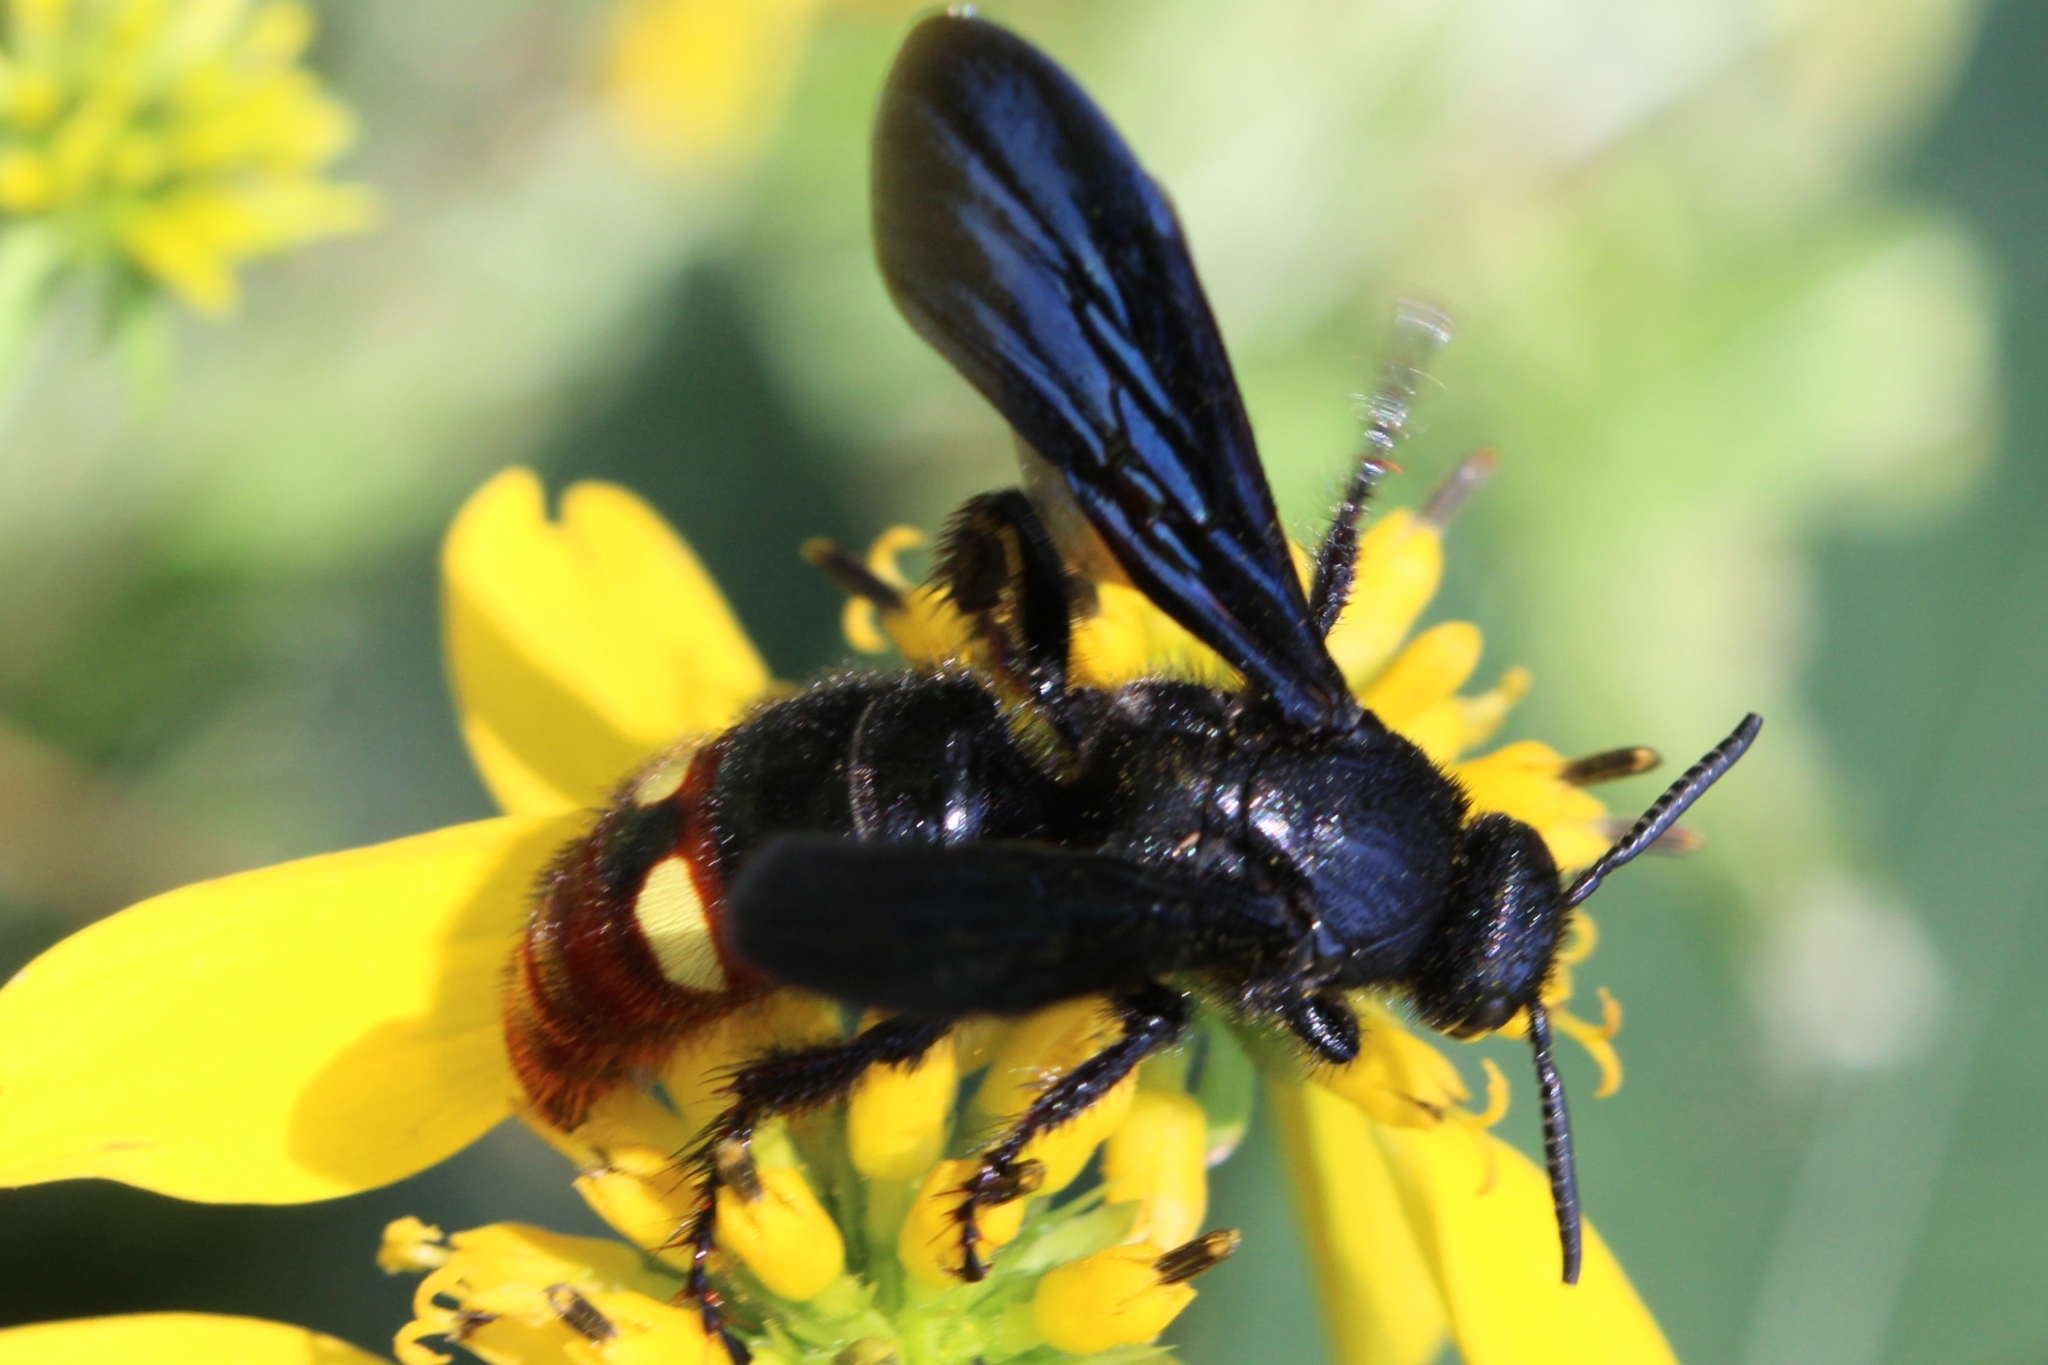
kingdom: Animalia
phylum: Arthropoda
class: Insecta
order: Hymenoptera
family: Scoliidae
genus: Scolia
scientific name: Scolia dubia
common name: Blue-winged scoliid wasp
